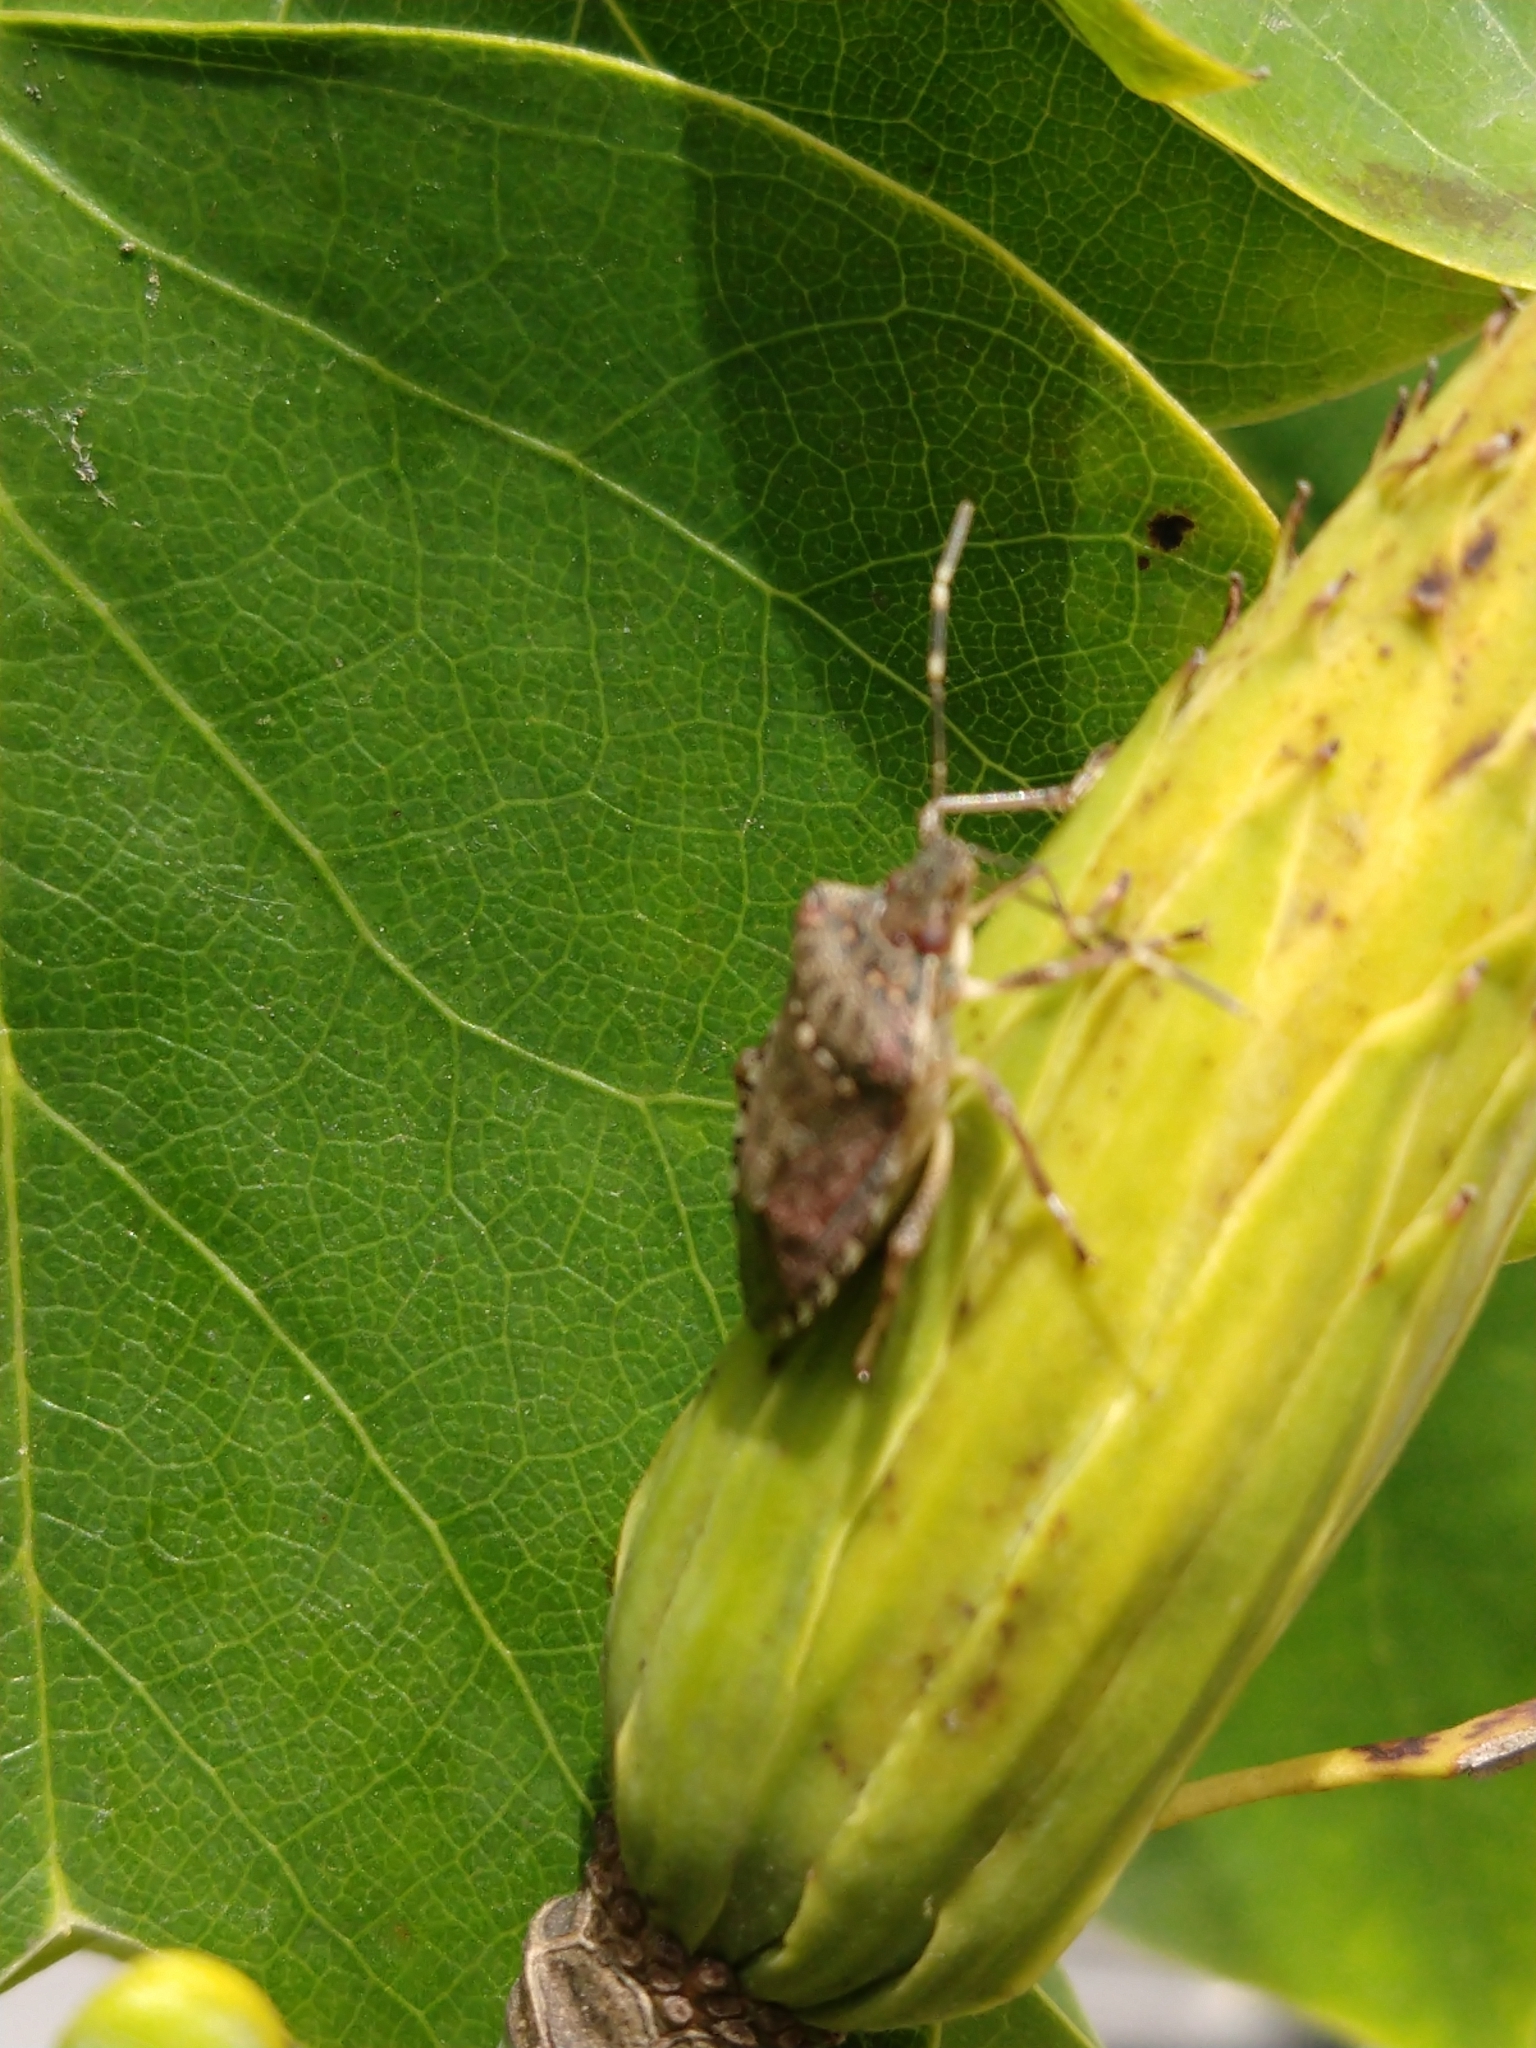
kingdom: Animalia
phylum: Arthropoda
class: Insecta
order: Hemiptera
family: Pentatomidae
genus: Halyomorpha
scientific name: Halyomorpha halys
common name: Brown marmorated stink bug
